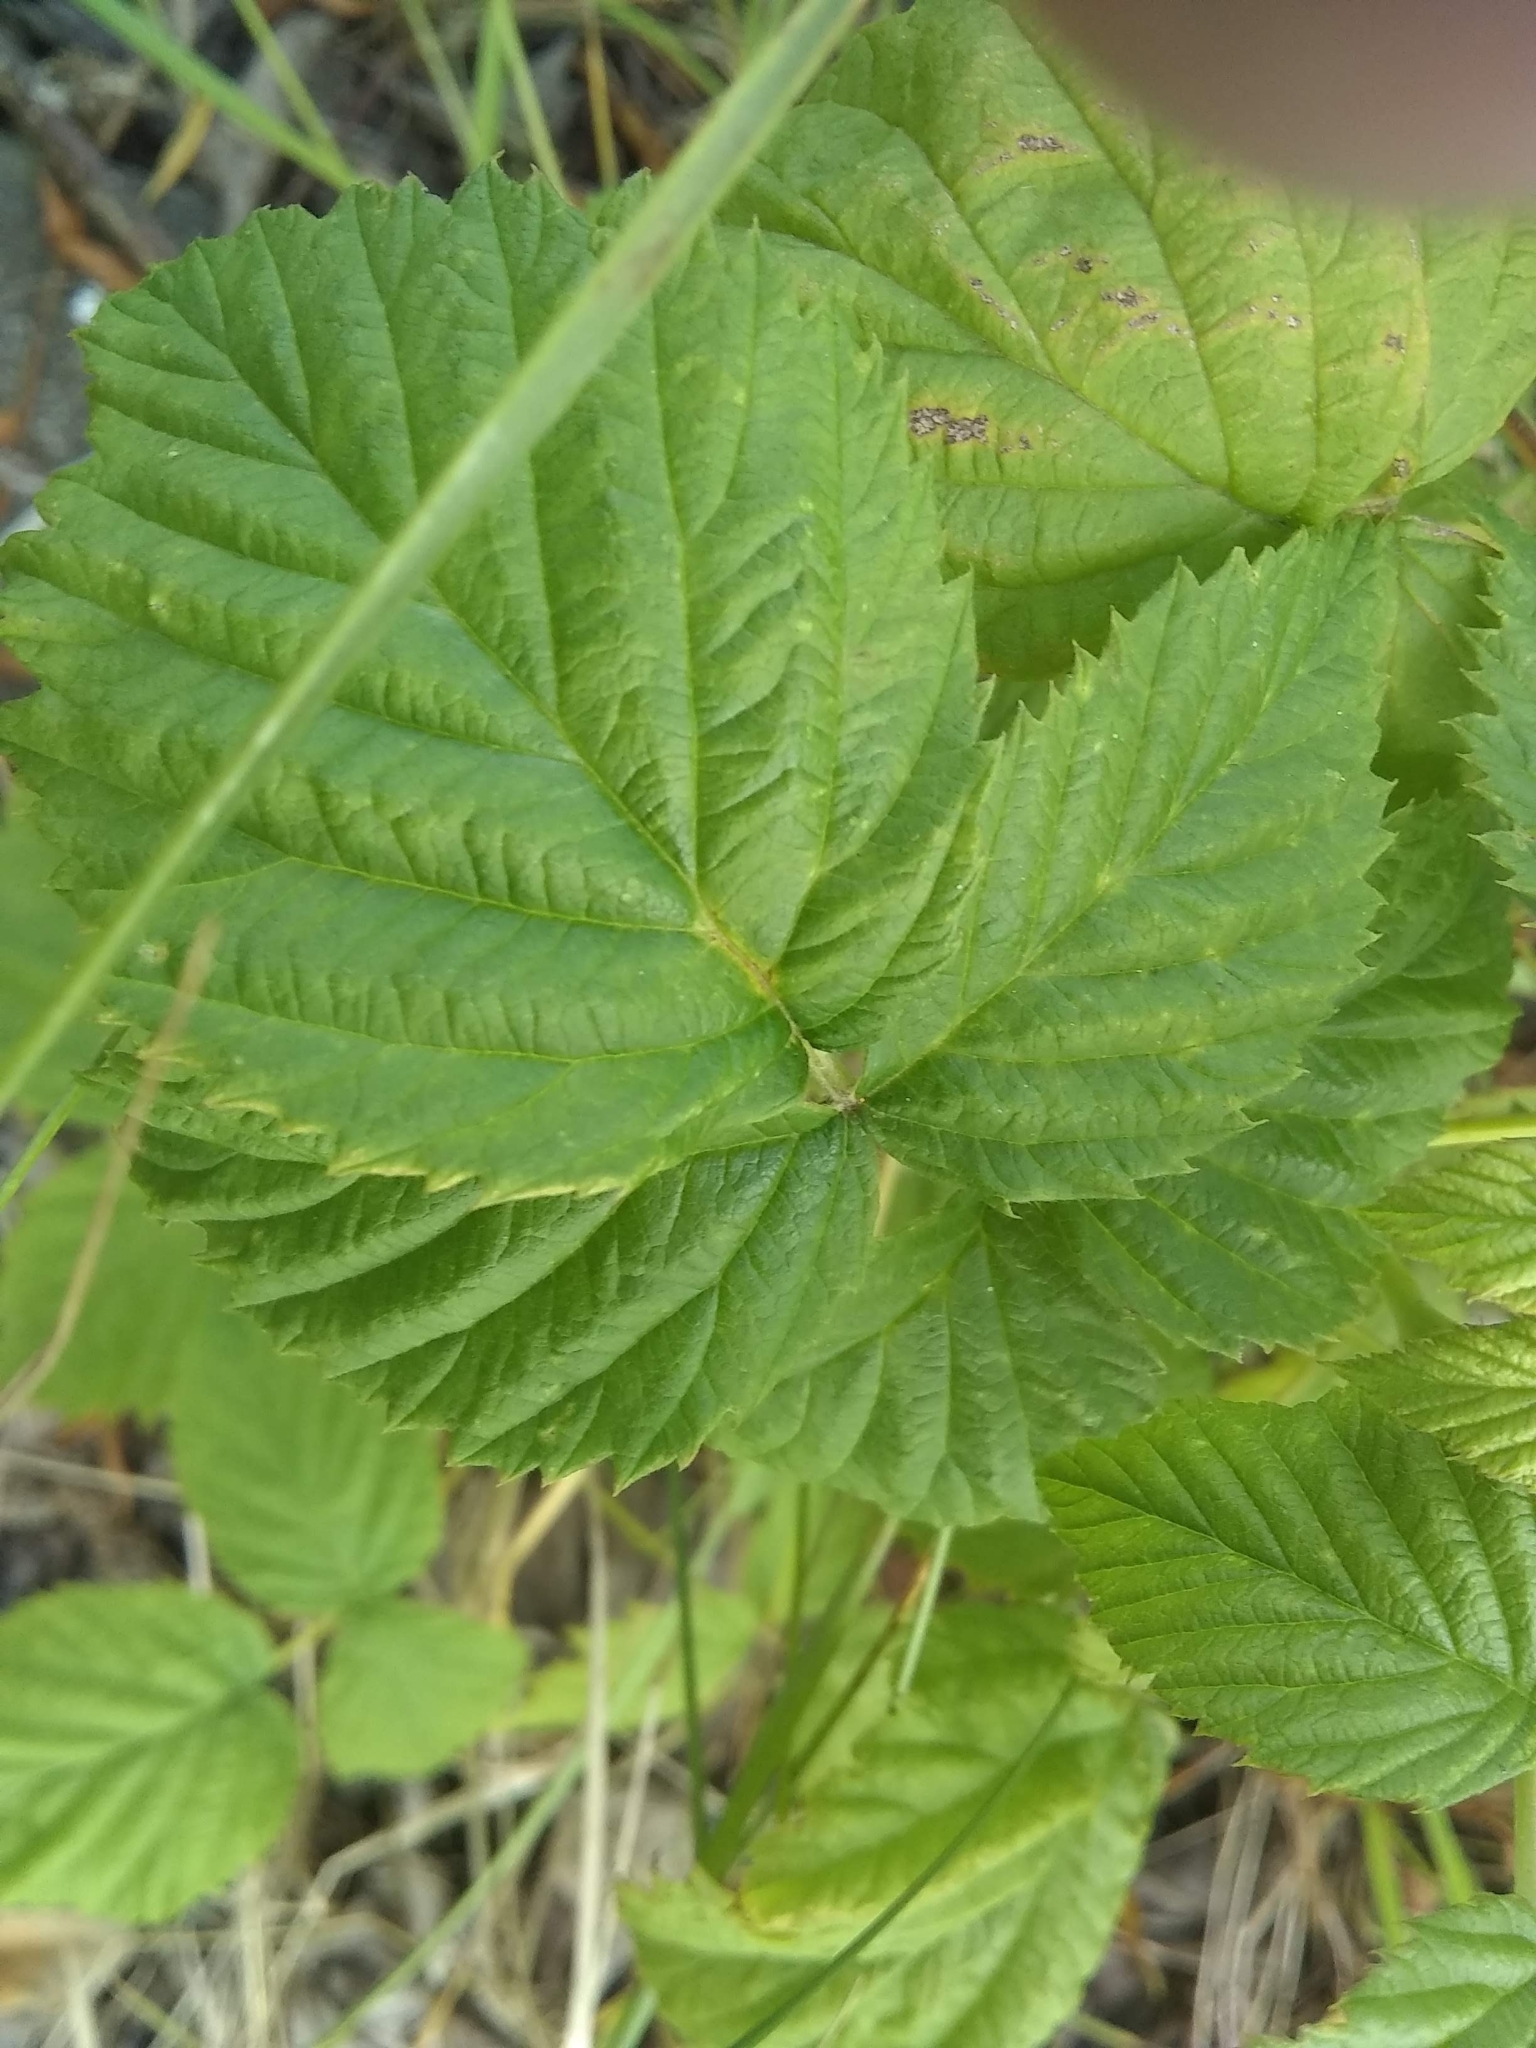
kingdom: Plantae
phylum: Tracheophyta
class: Magnoliopsida
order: Rosales
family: Rosaceae
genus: Rubus
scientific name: Rubus idaeus
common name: Raspberry
